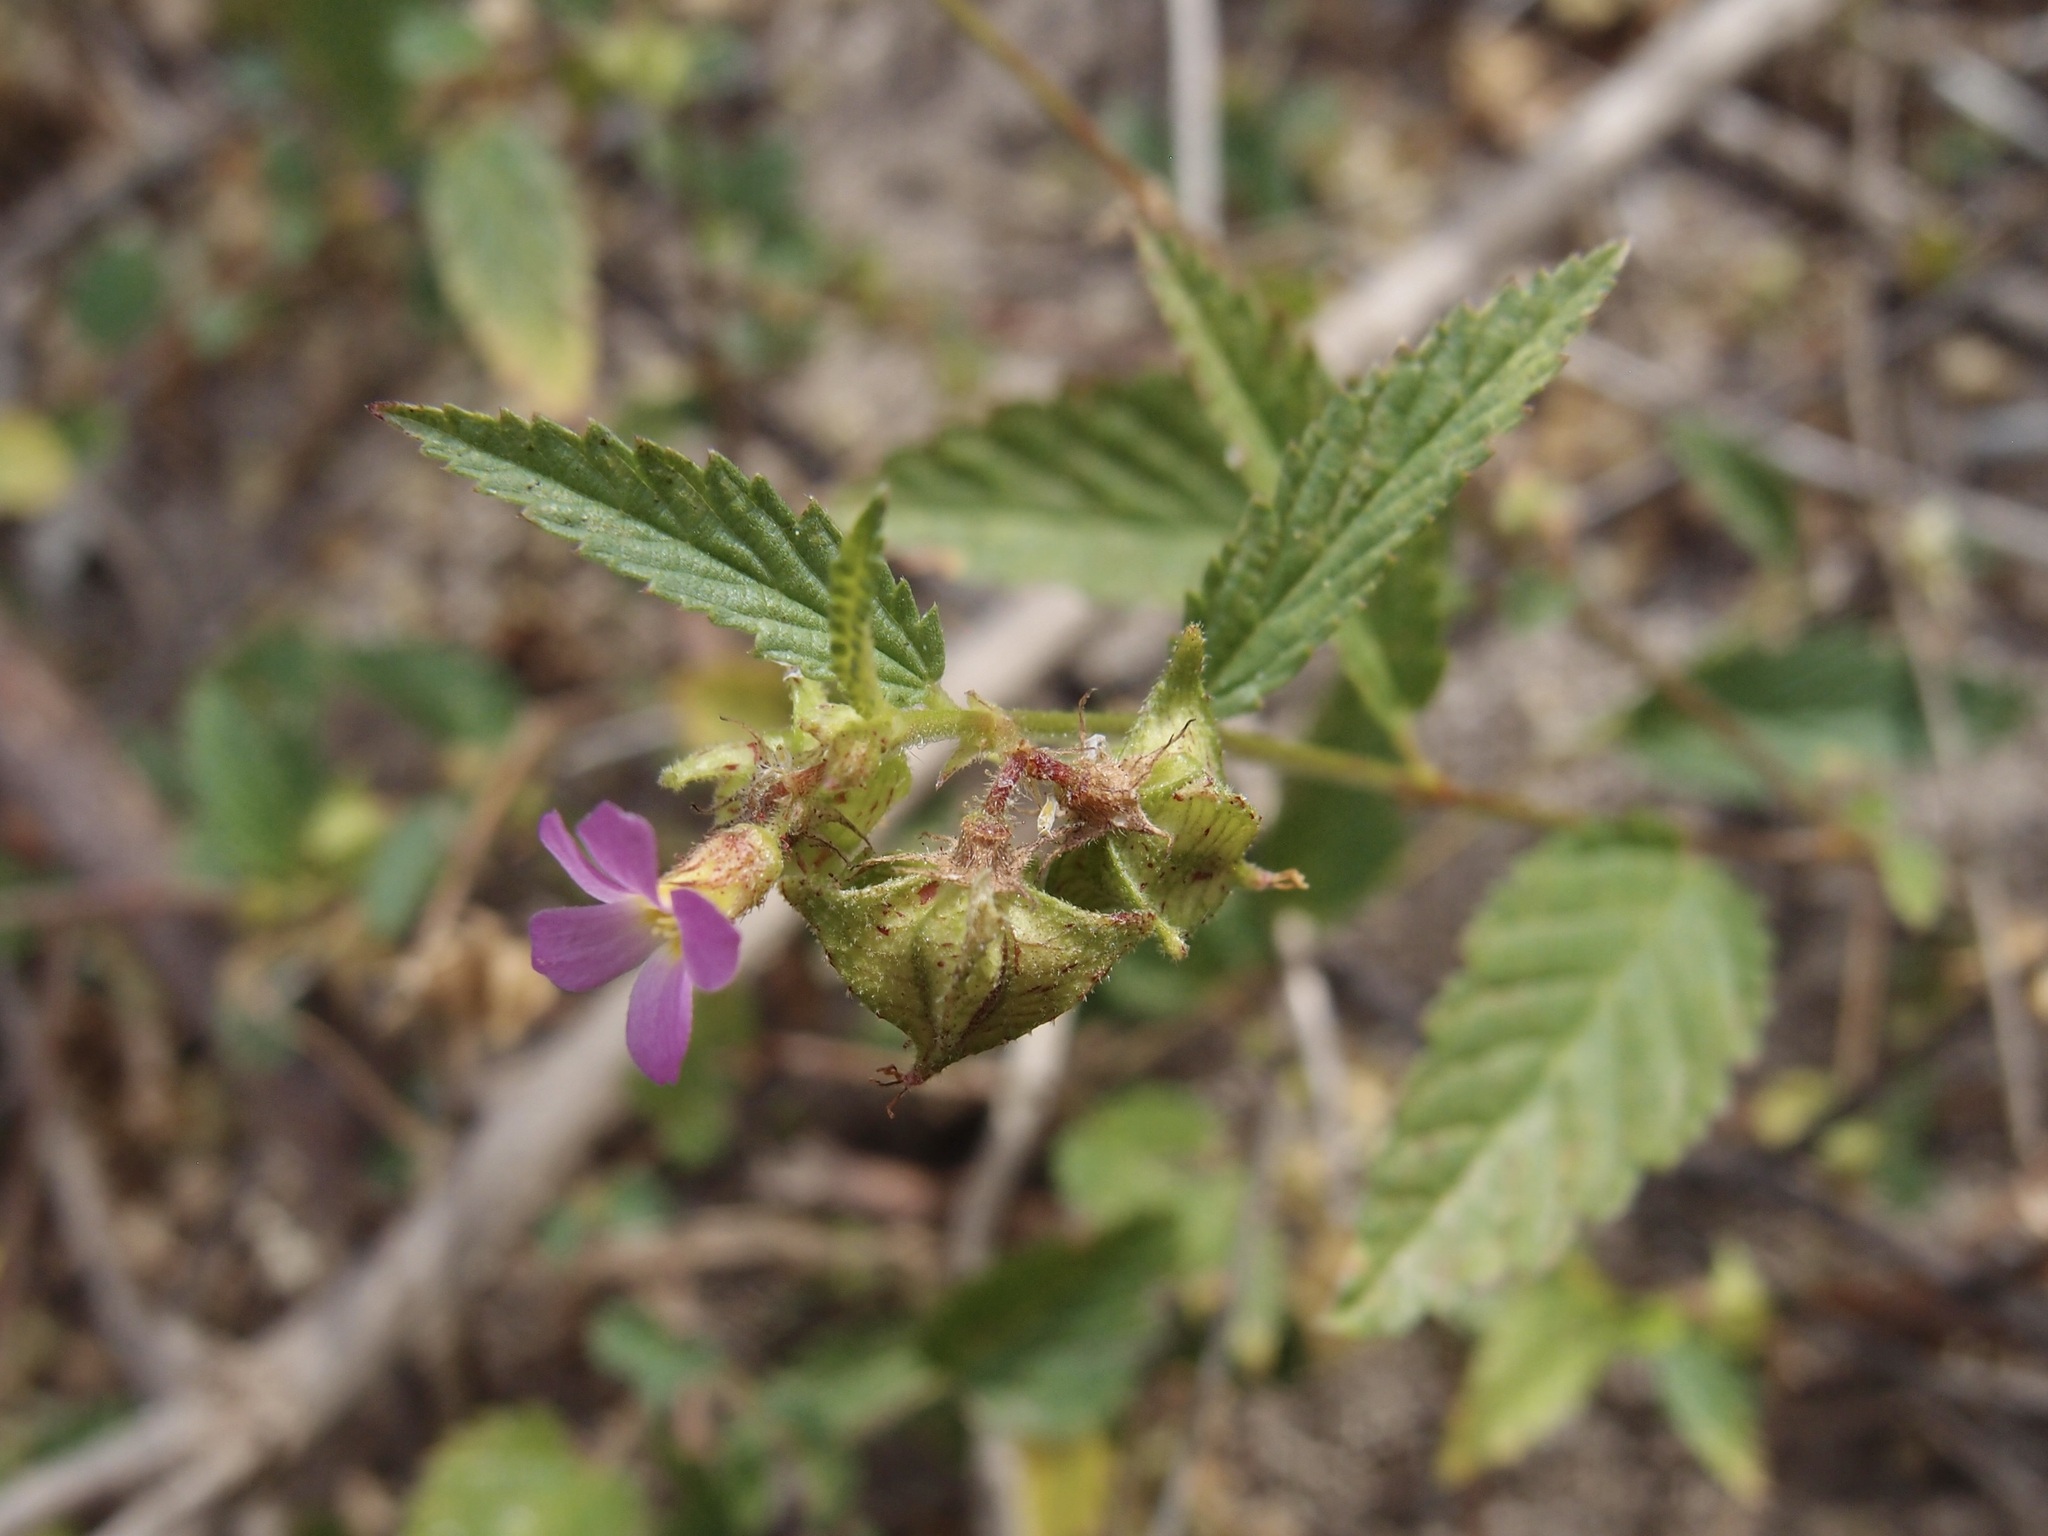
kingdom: Plantae
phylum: Tracheophyta
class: Magnoliopsida
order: Malvales
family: Malvaceae
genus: Melochia
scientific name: Melochia pyramidata
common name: Pyramidflower
